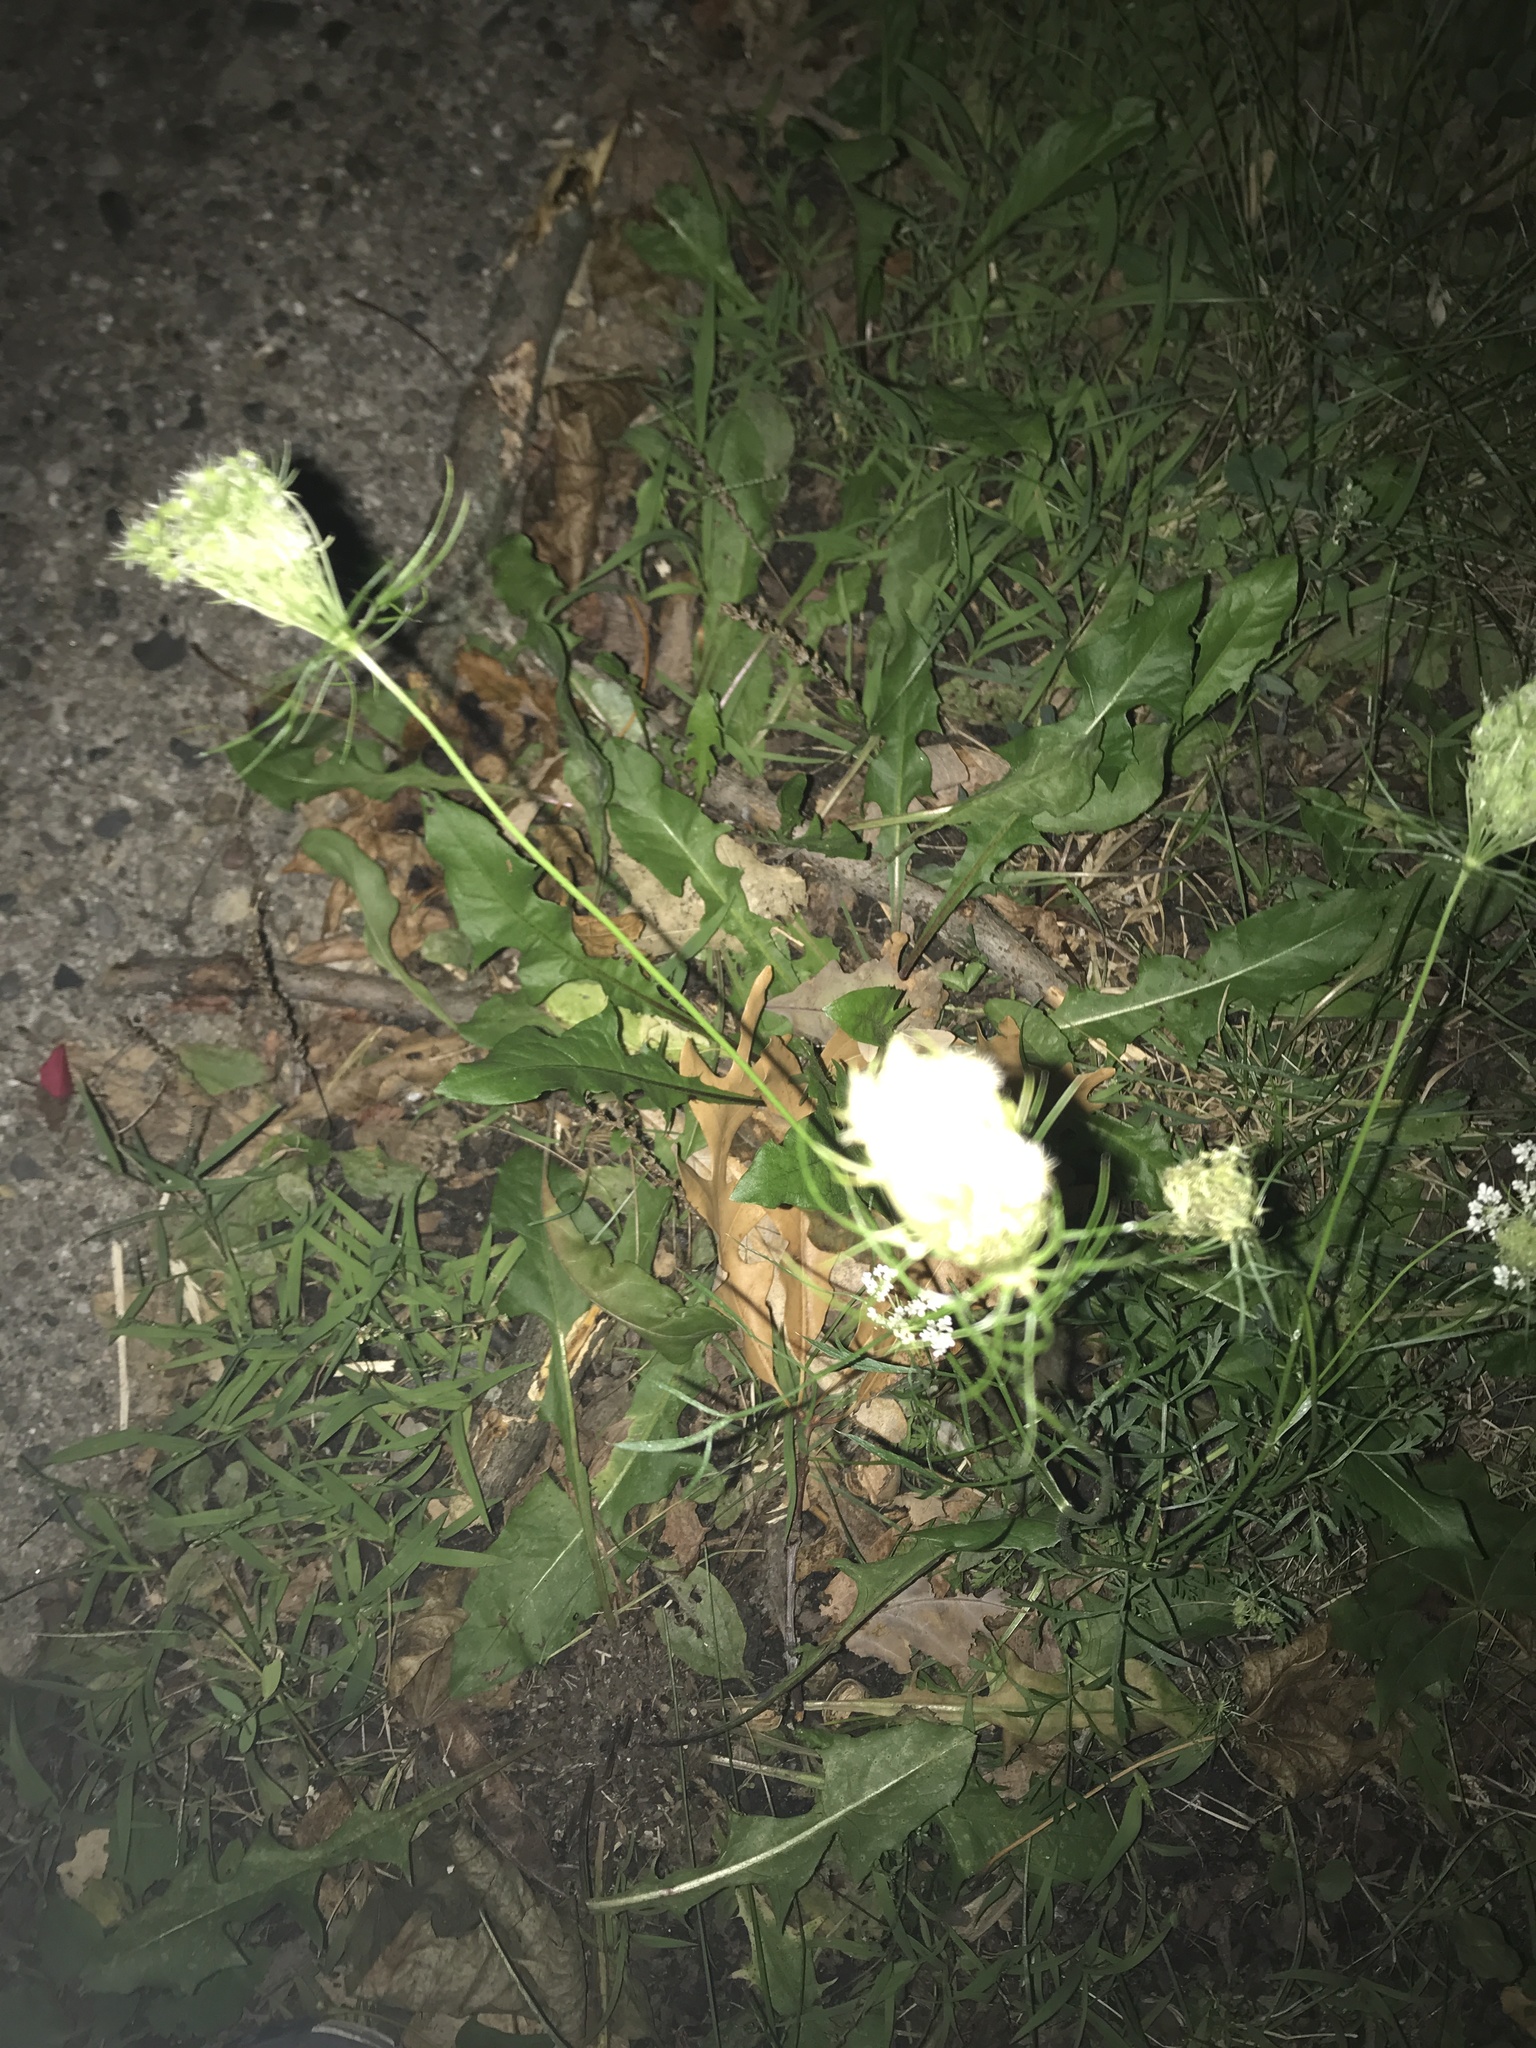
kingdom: Plantae
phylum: Tracheophyta
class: Magnoliopsida
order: Apiales
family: Apiaceae
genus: Daucus
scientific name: Daucus carota
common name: Wild carrot
